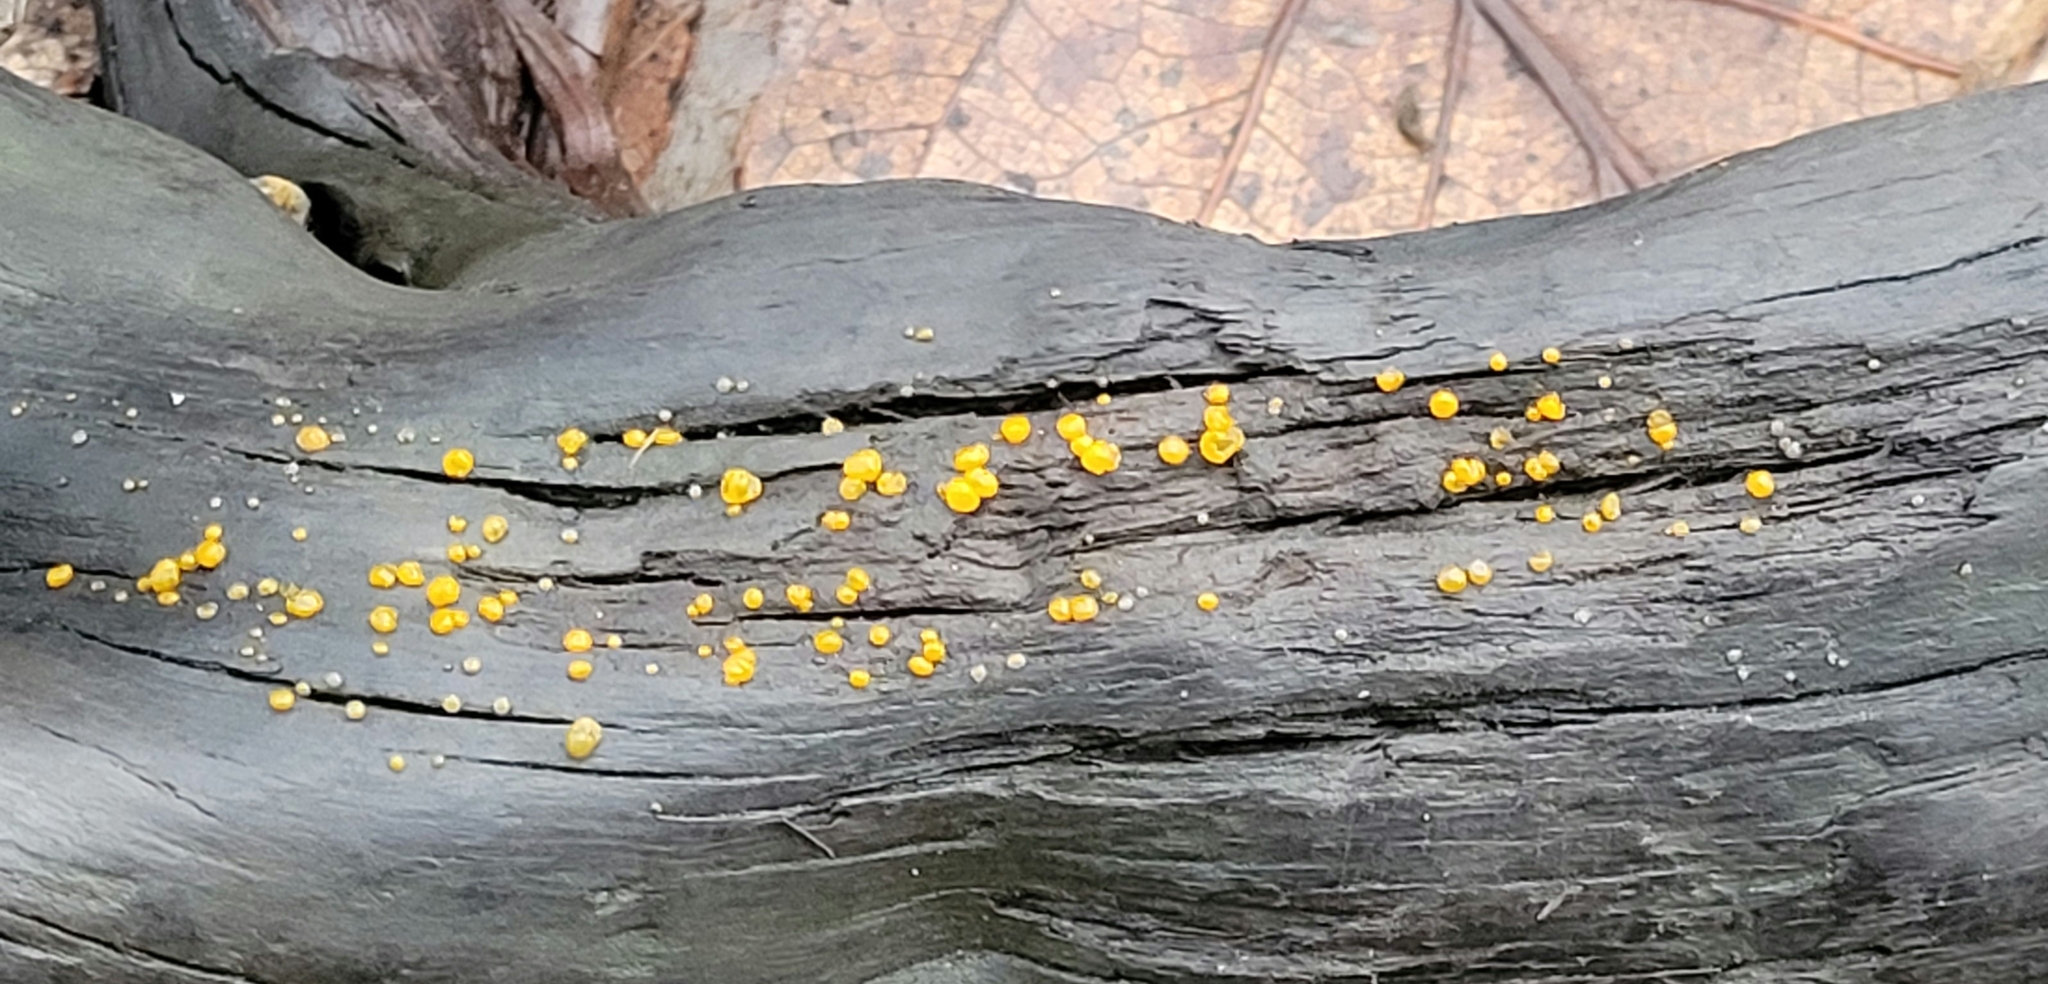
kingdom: Fungi
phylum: Basidiomycota
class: Dacrymycetes
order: Dacrymycetales
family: Dacrymycetaceae
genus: Dacrymyces
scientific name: Dacrymyces stillatus
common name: Common jelly spot
